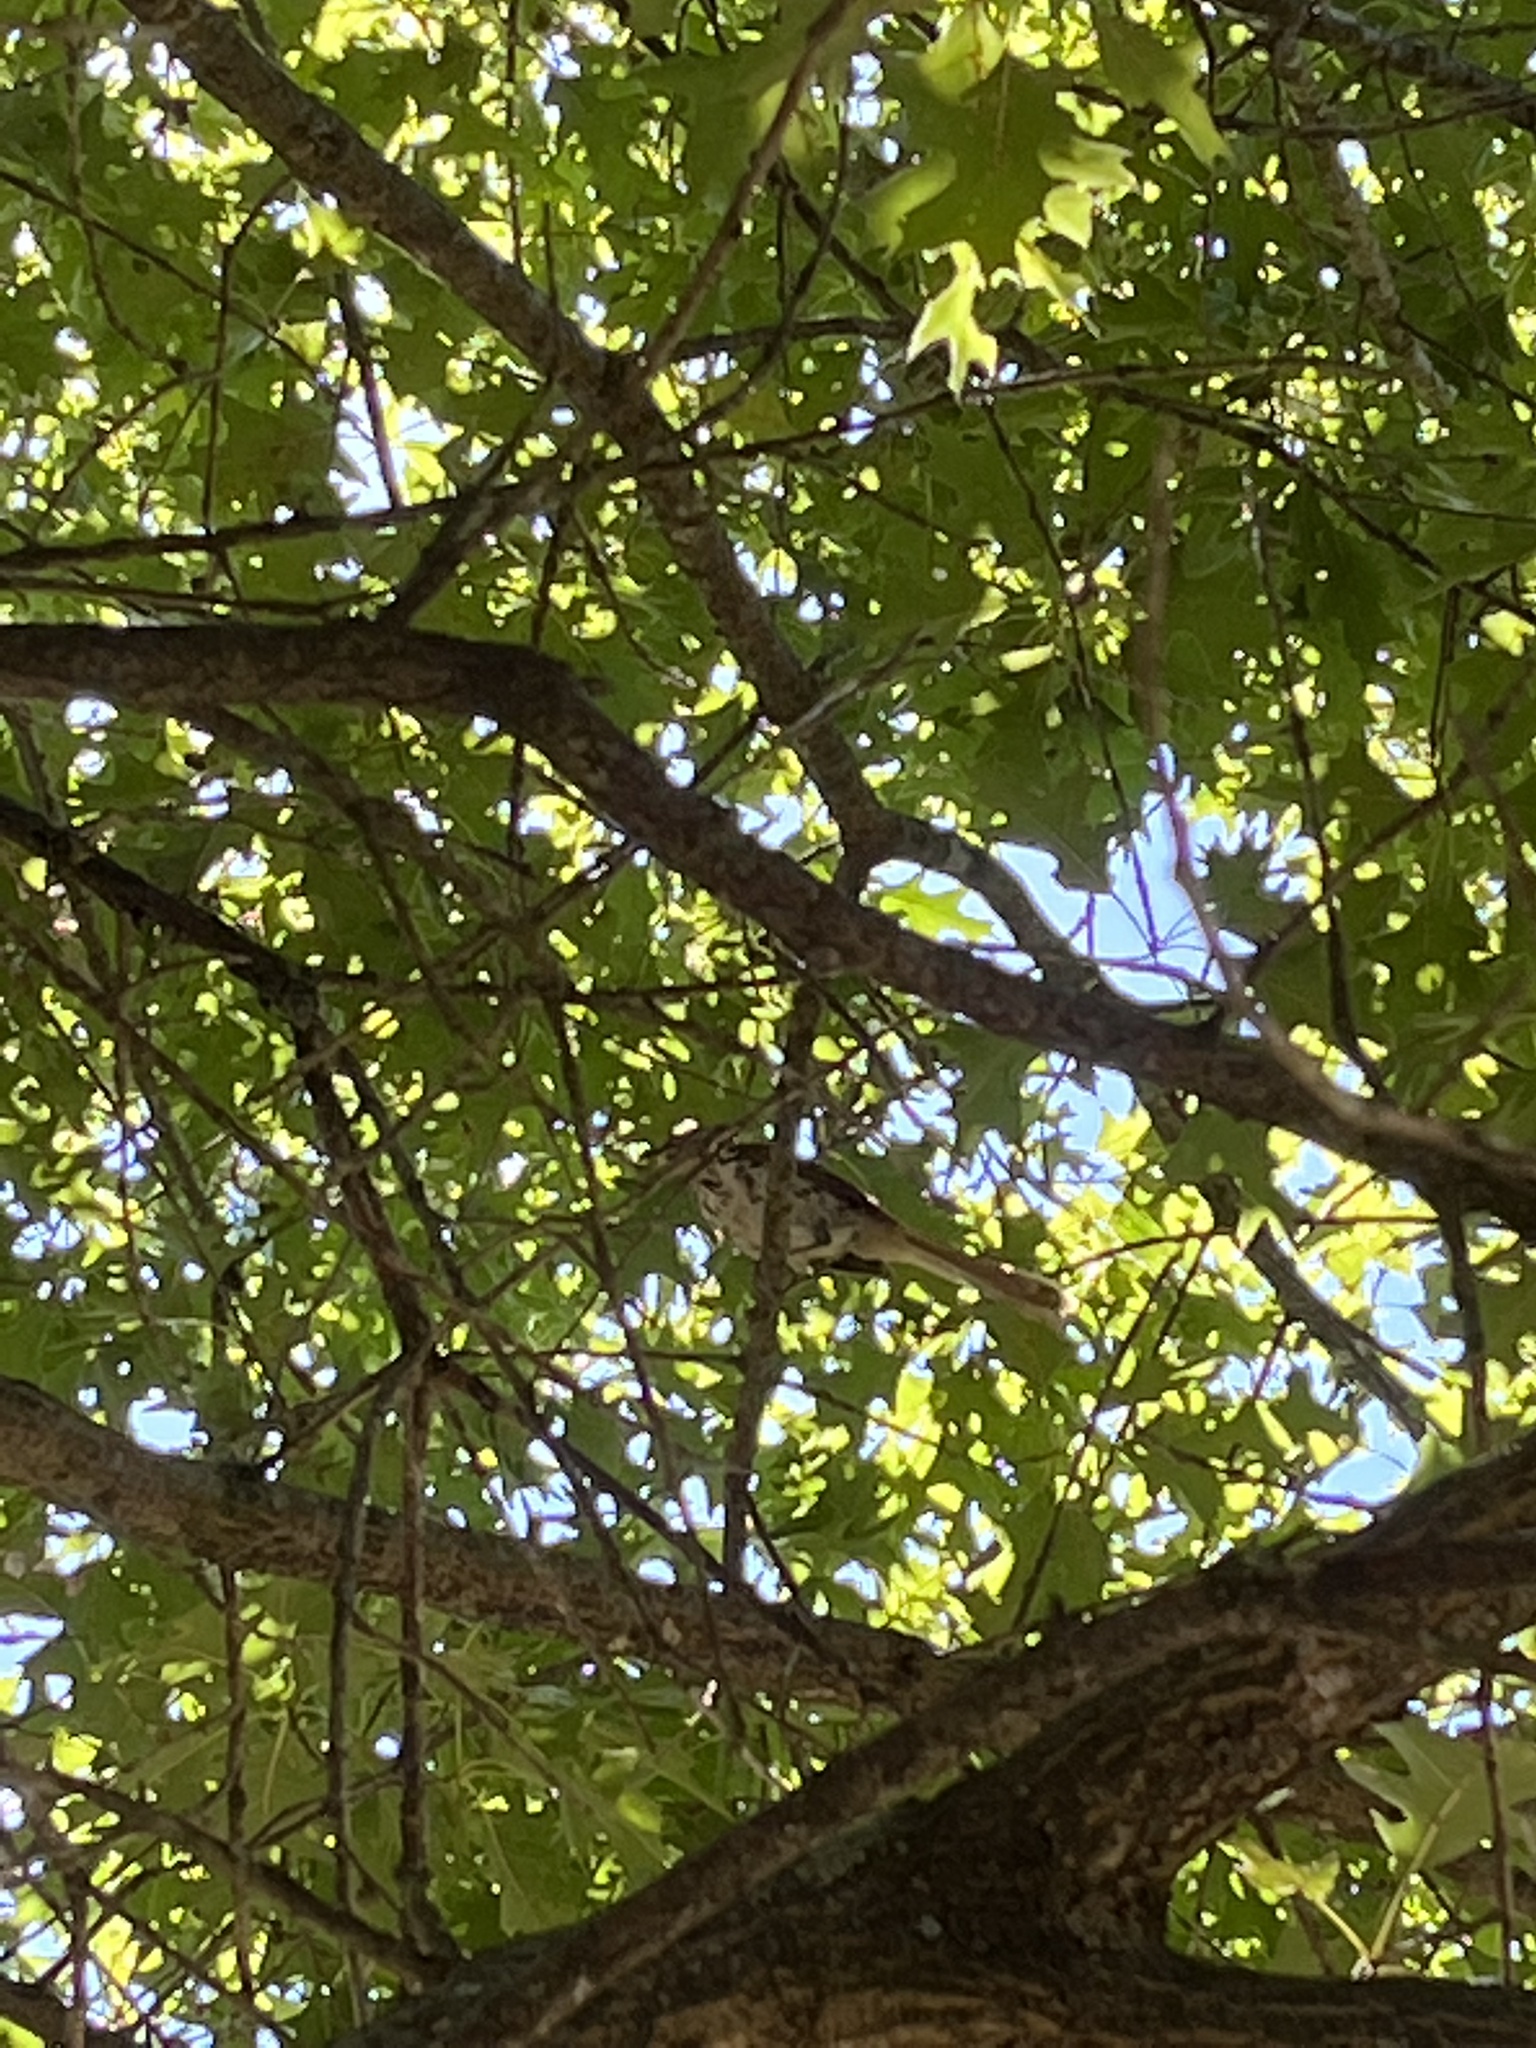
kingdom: Animalia
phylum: Chordata
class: Aves
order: Passeriformes
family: Mimidae
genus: Toxostoma
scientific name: Toxostoma rufum
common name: Brown thrasher
